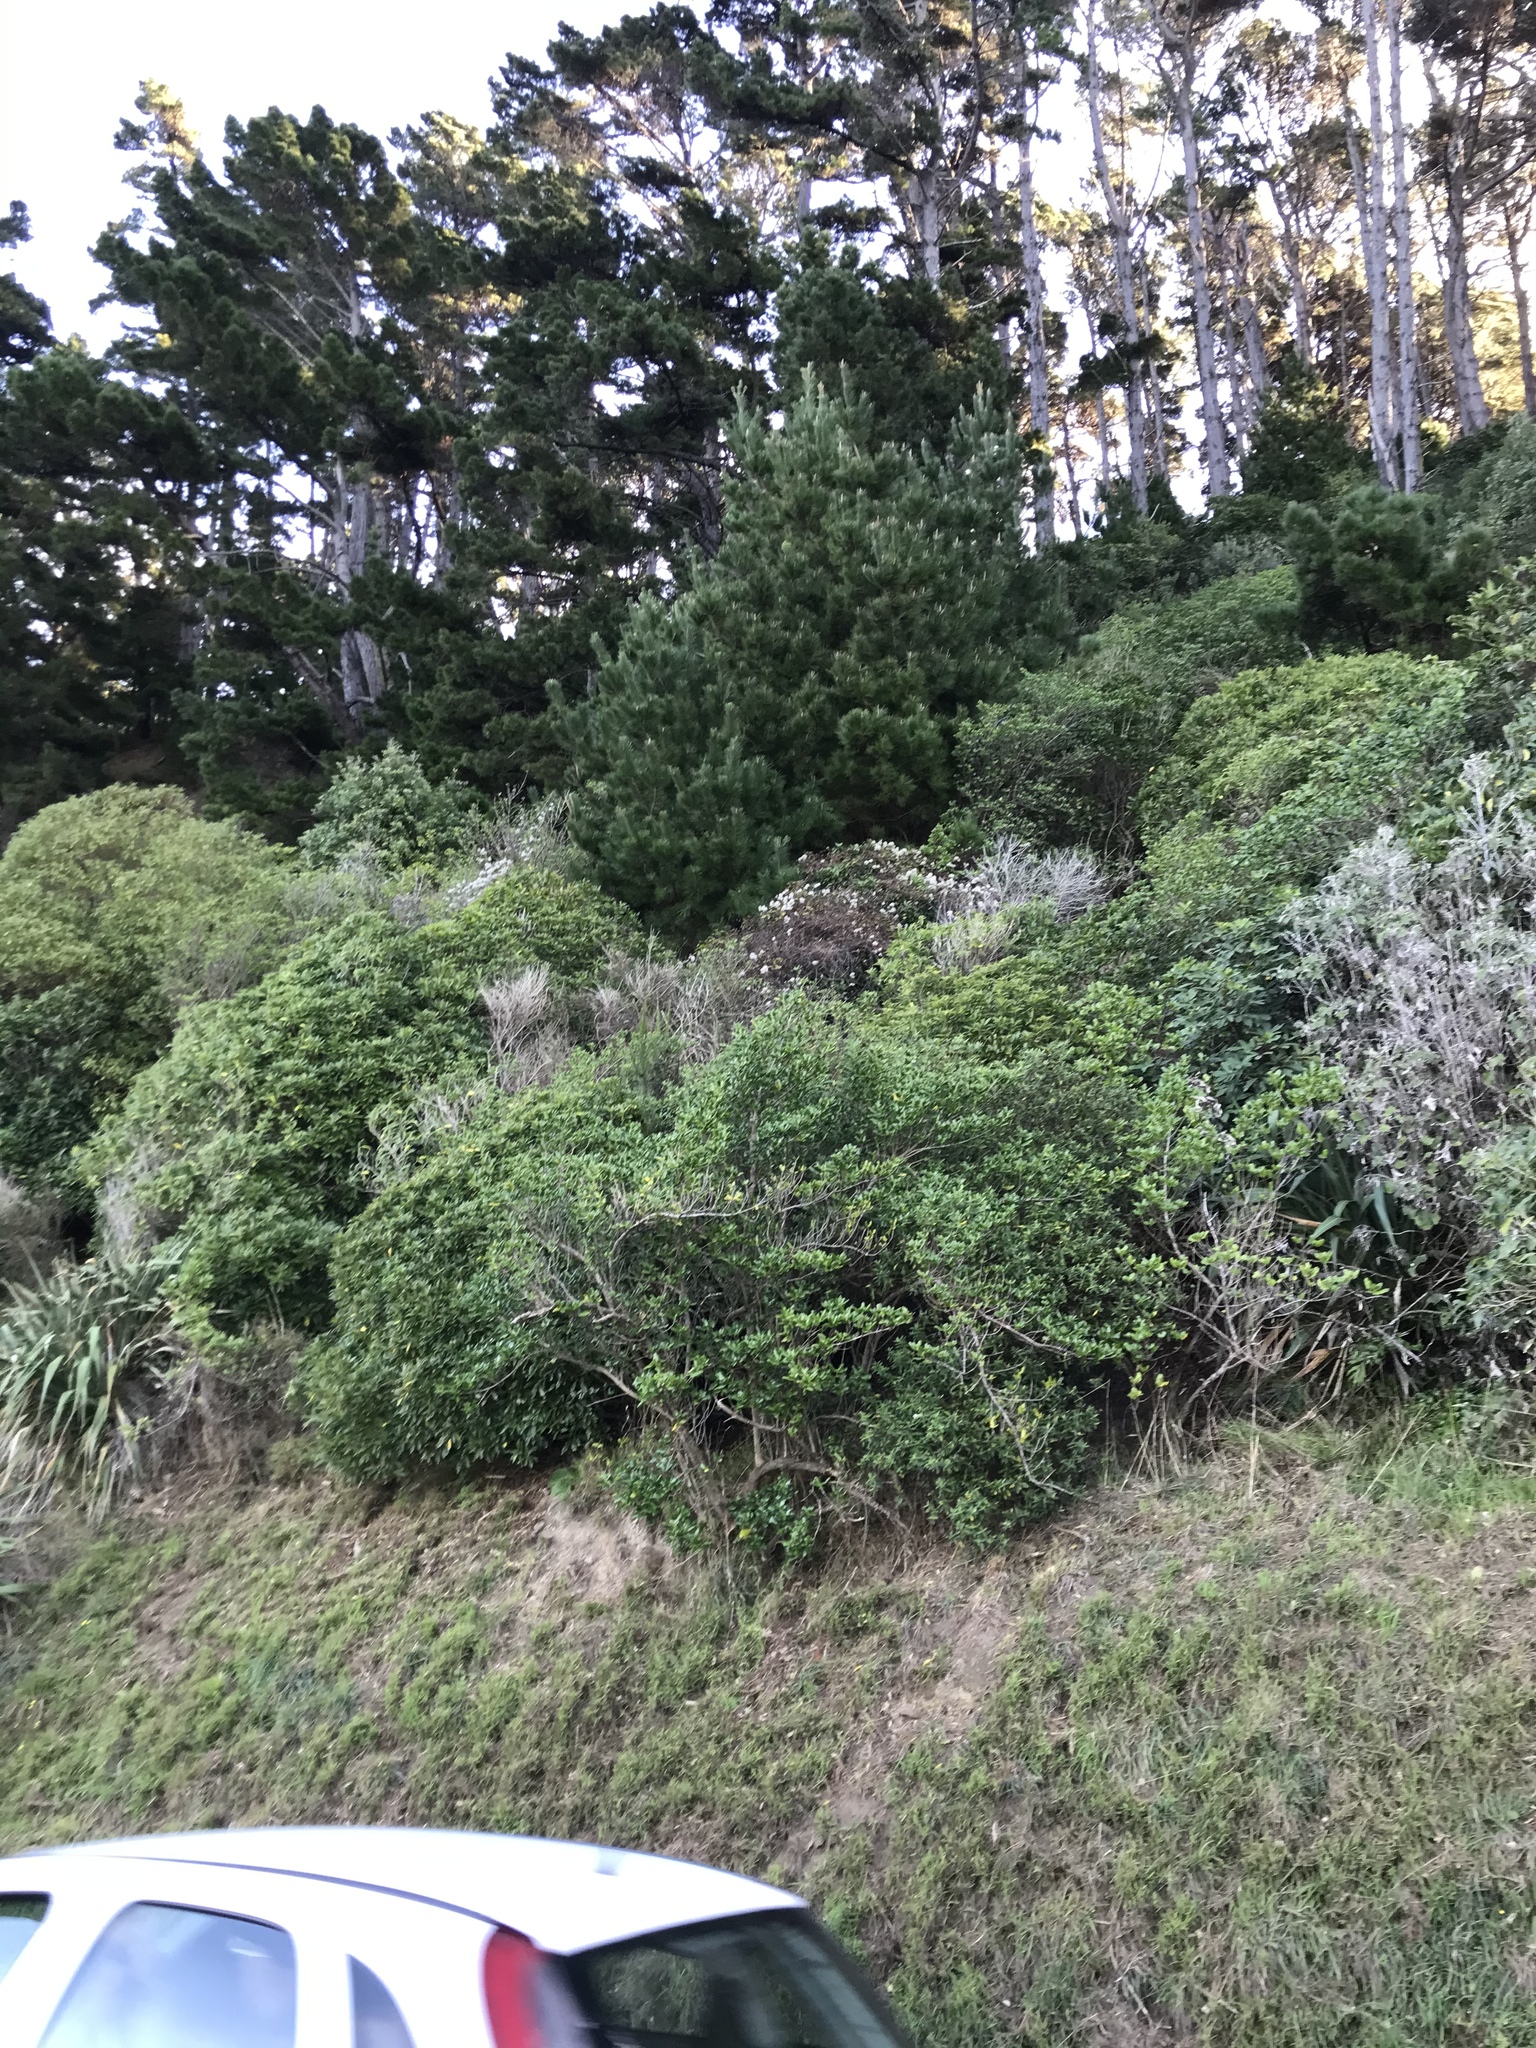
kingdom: Plantae
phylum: Tracheophyta
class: Magnoliopsida
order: Ranunculales
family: Ranunculaceae
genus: Clematis
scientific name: Clematis vitalba
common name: Evergreen clematis
